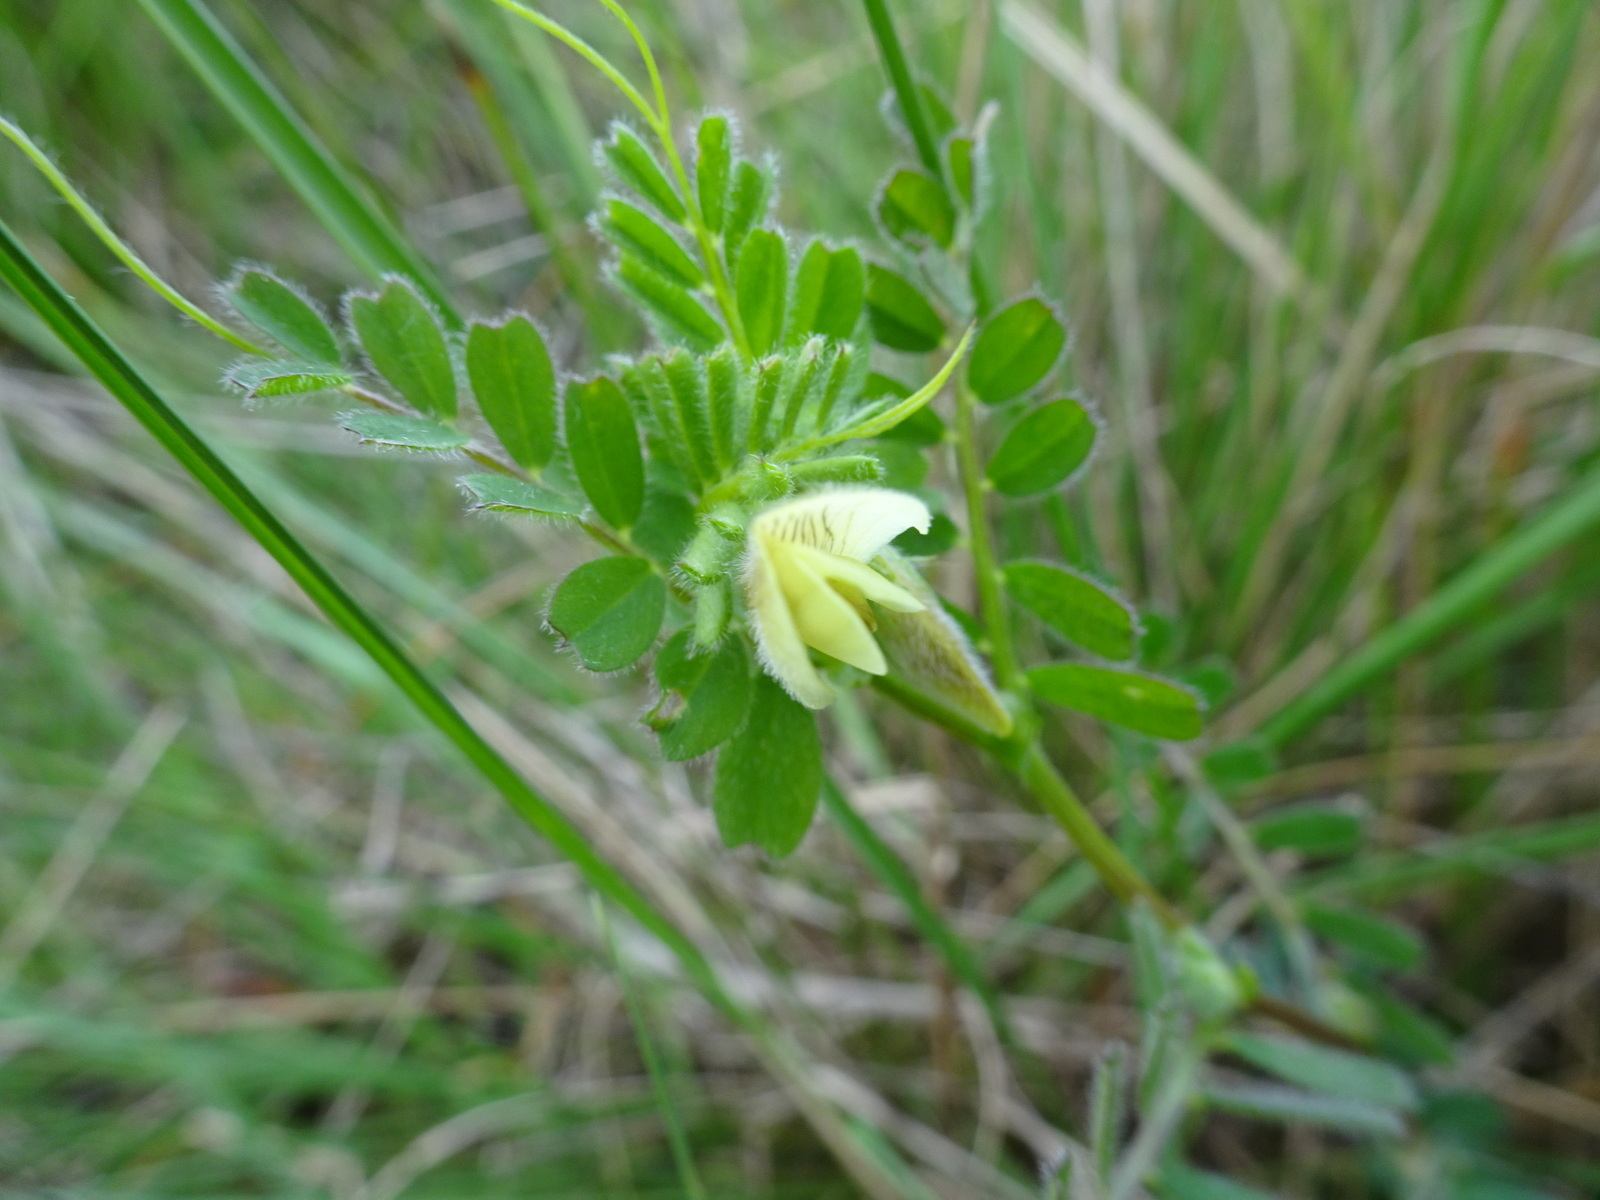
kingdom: Plantae
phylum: Tracheophyta
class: Magnoliopsida
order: Fabales
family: Fabaceae
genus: Vicia
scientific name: Vicia hybrida
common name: Hairy yellow vetch
